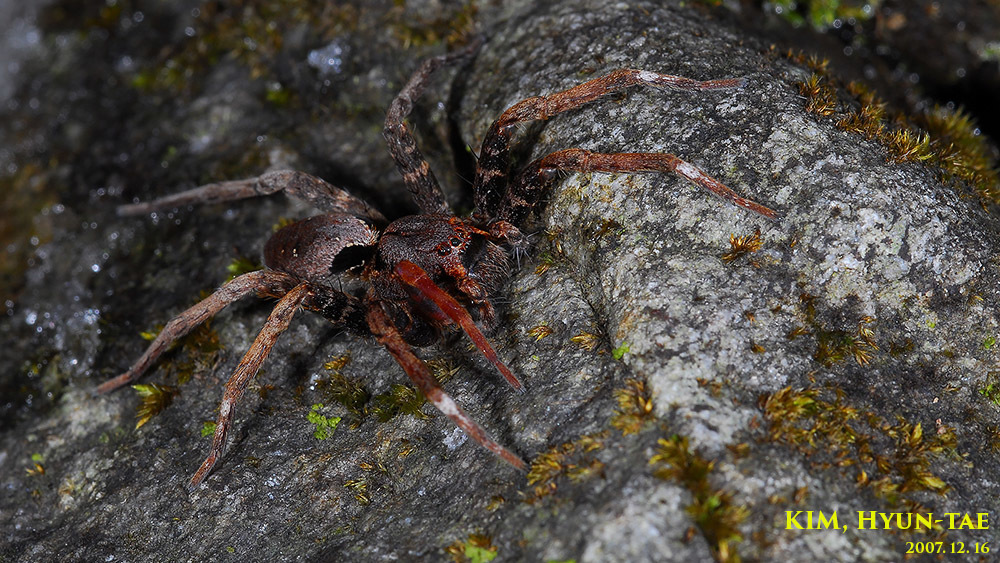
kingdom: Animalia
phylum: Arthropoda
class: Arachnida
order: Araneae
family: Pisauridae
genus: Dolomedes
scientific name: Dolomedes nigrimaculatus
